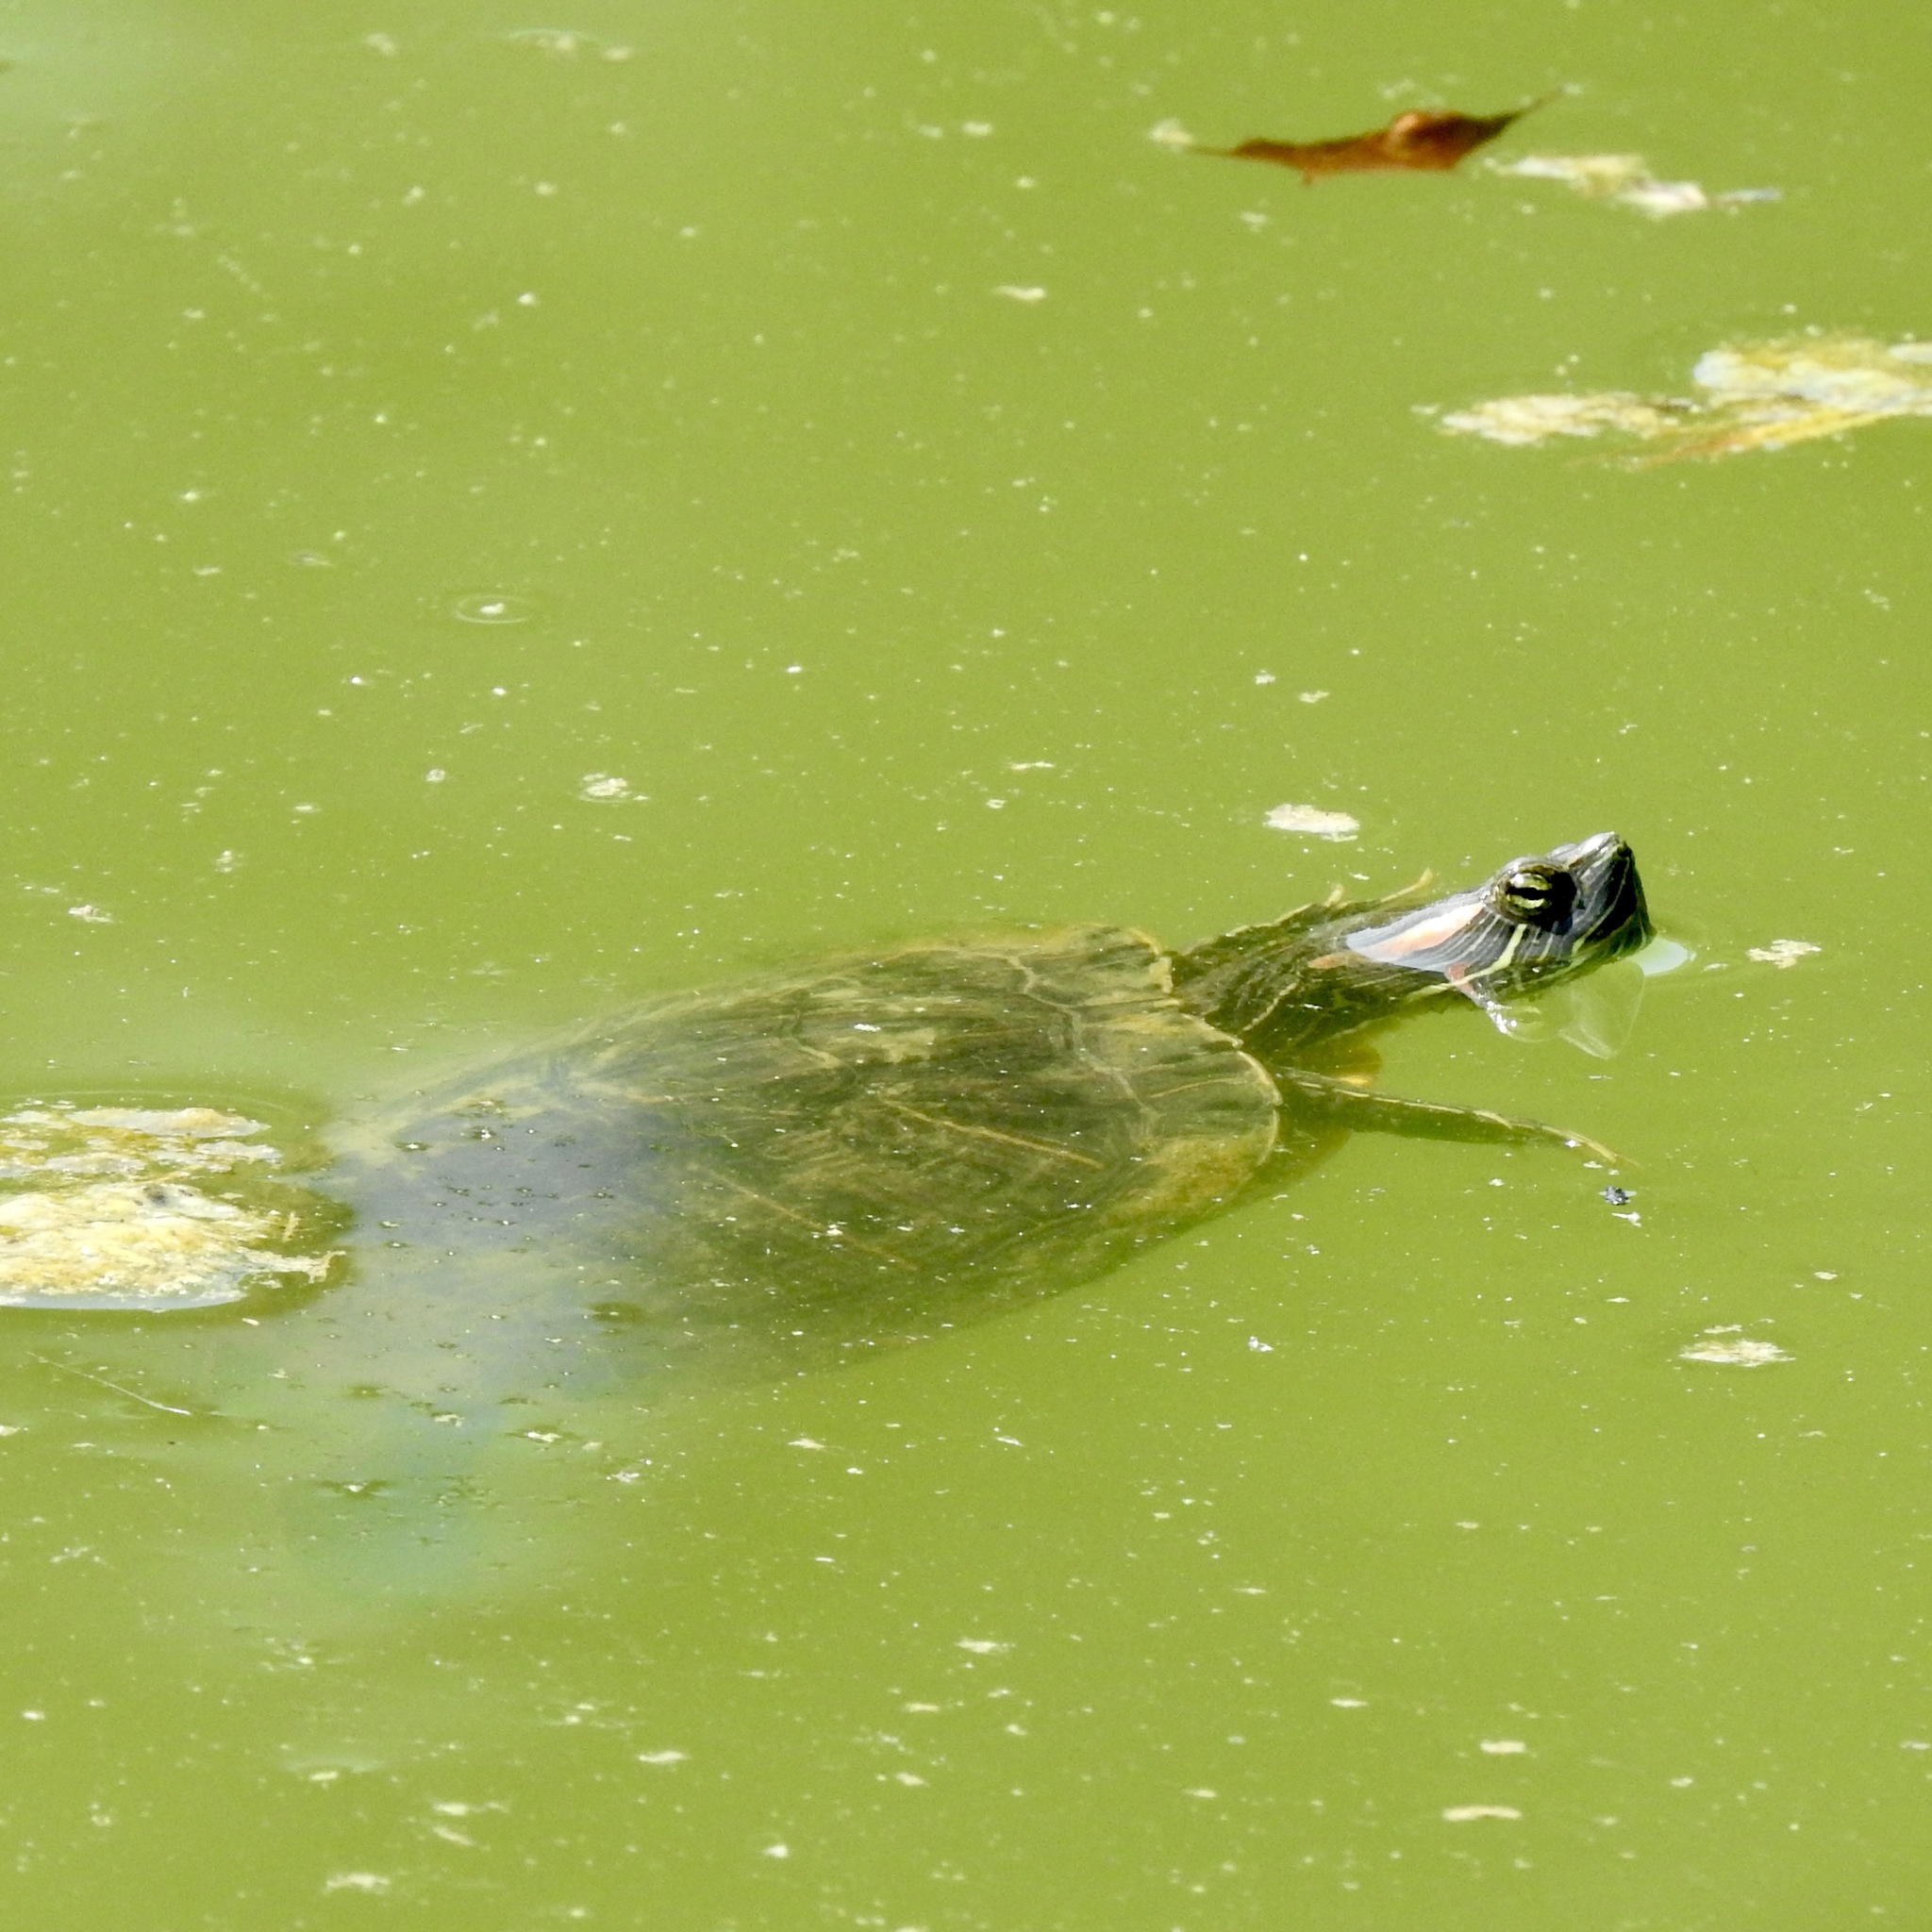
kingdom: Animalia
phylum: Chordata
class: Testudines
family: Emydidae
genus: Trachemys
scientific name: Trachemys scripta
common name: Slider
